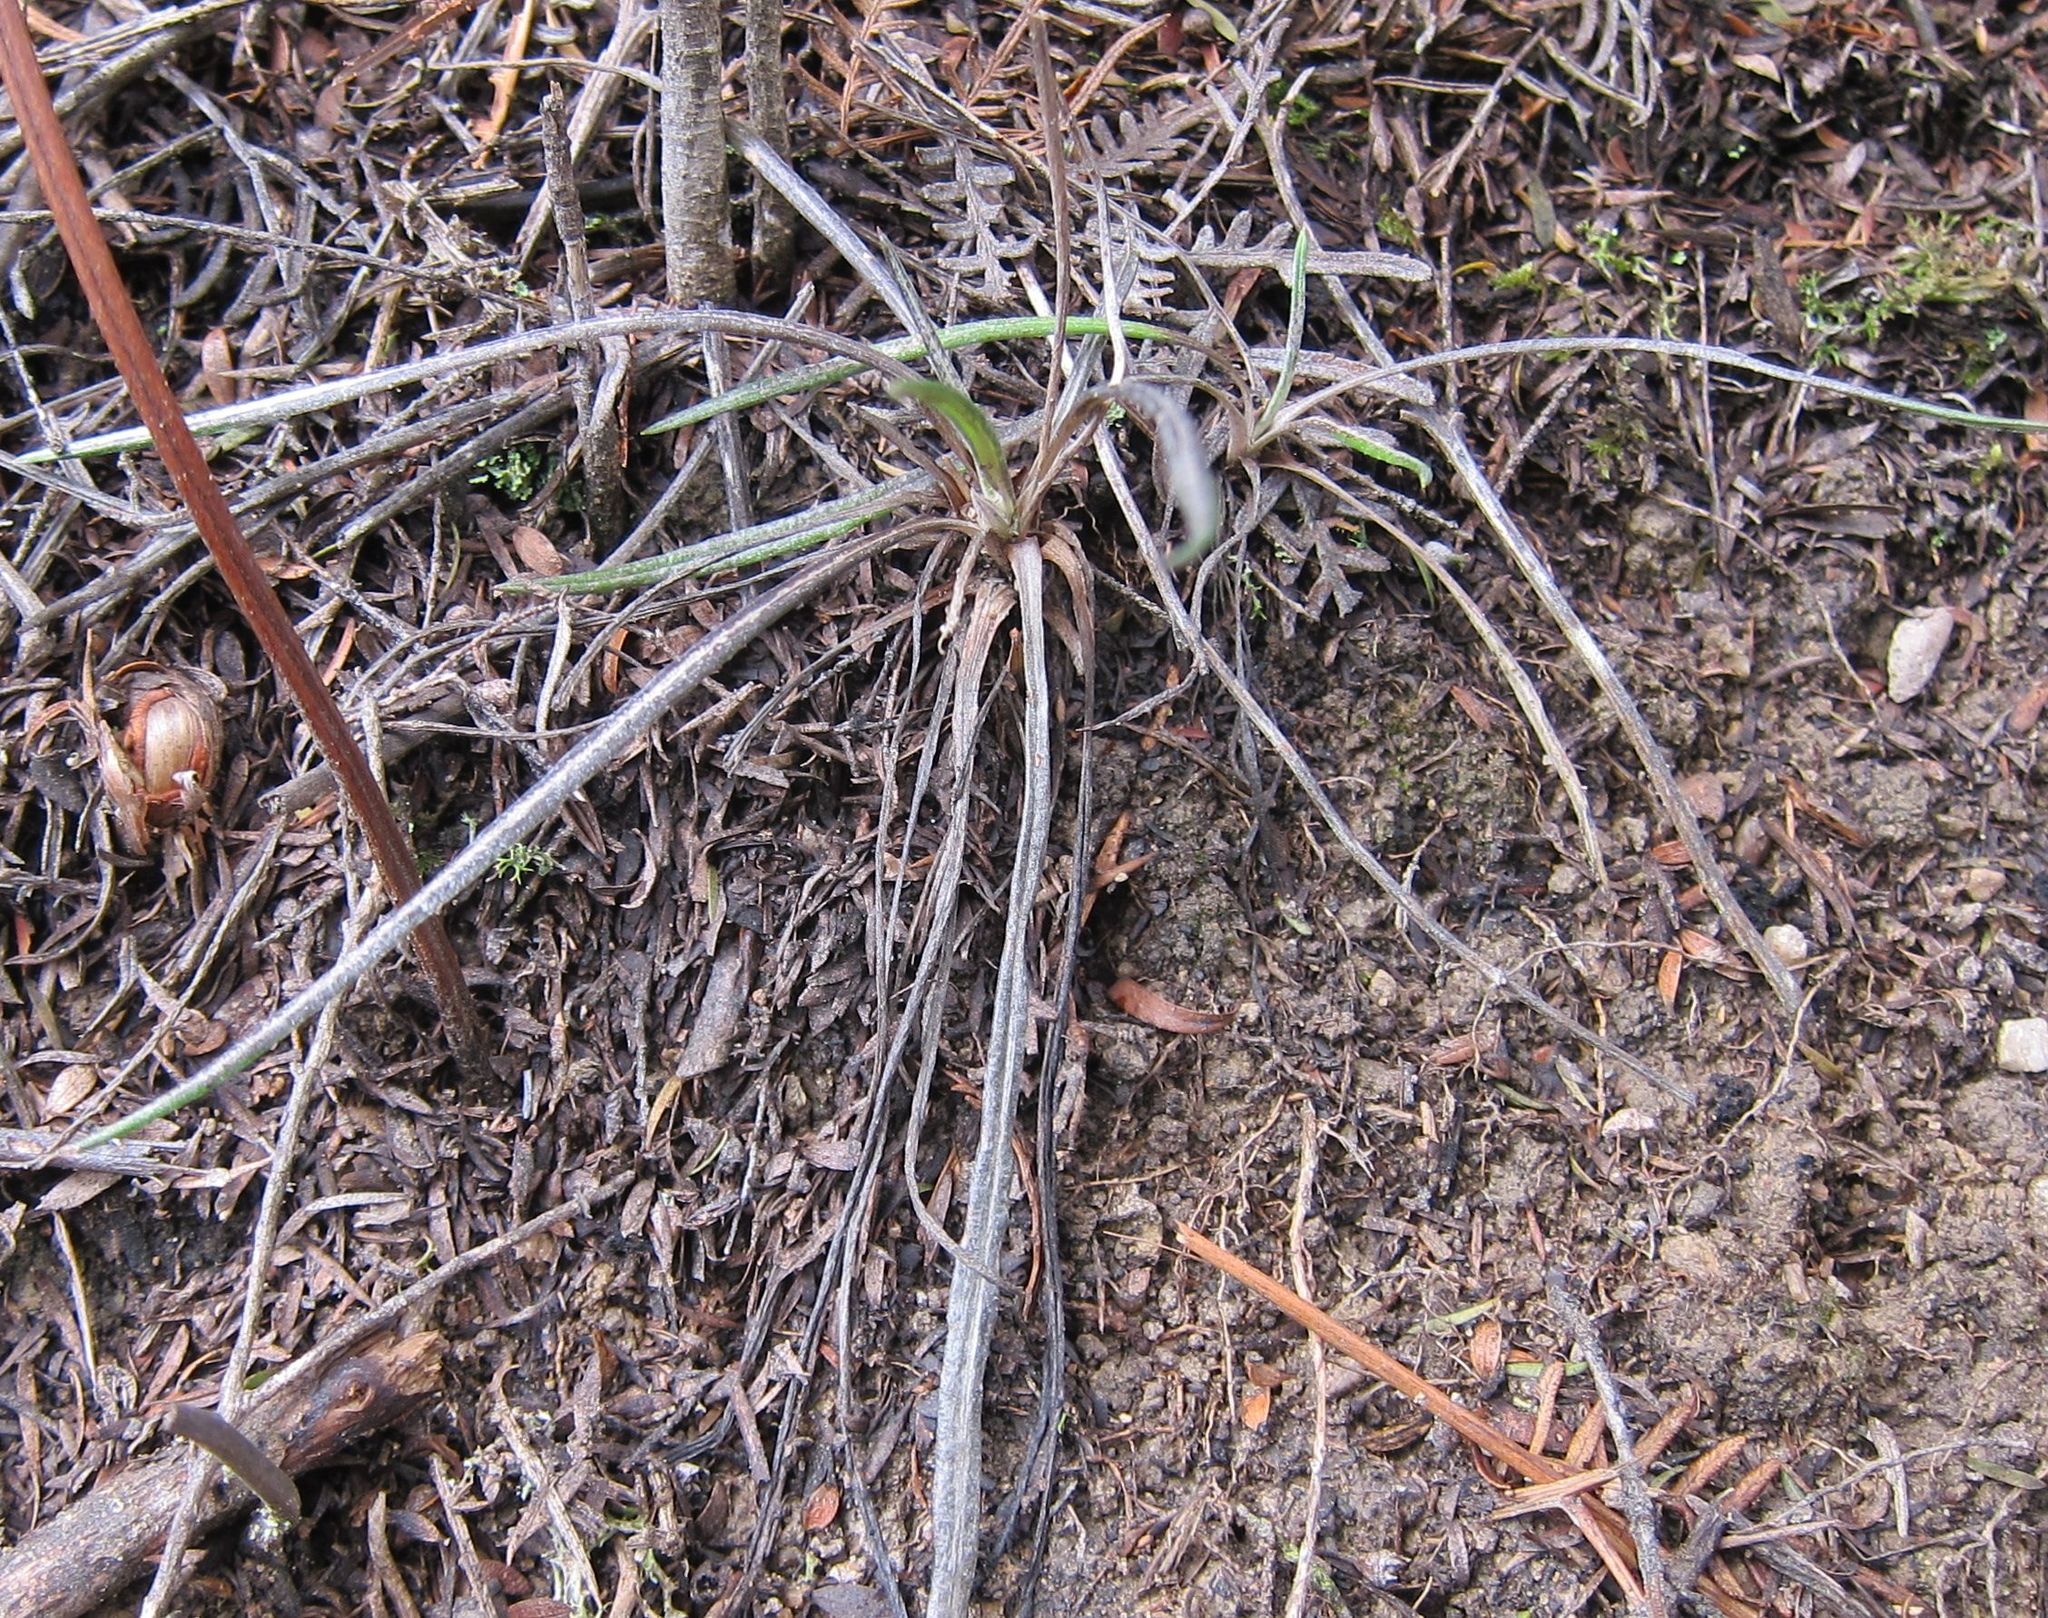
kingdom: Plantae
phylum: Tracheophyta
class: Magnoliopsida
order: Asterales
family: Asteraceae
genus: Celmisia
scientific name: Celmisia gracilenta
